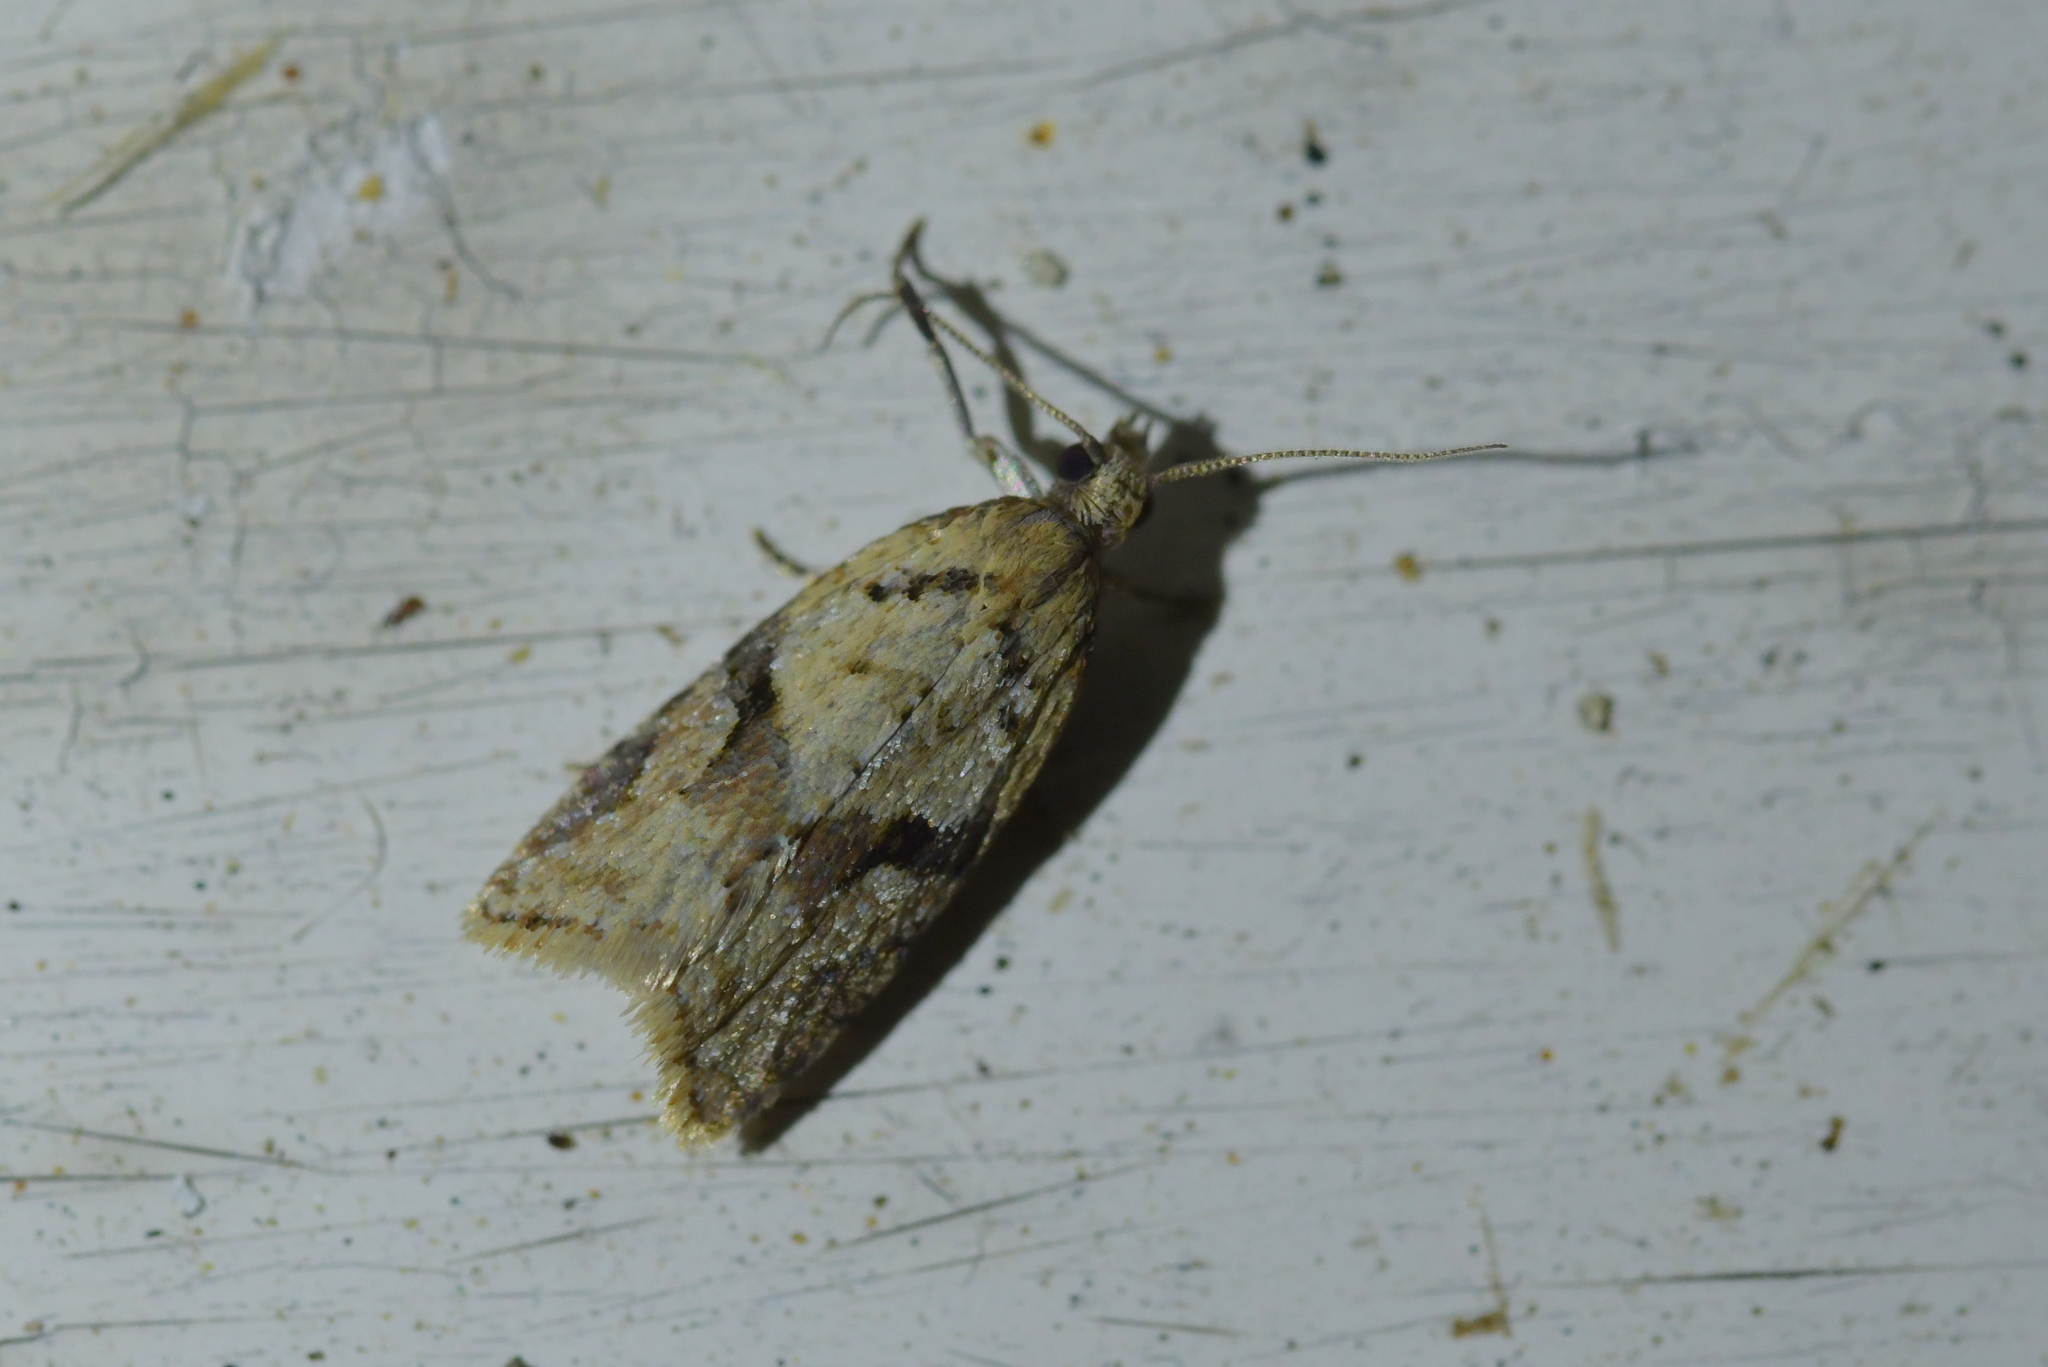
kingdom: Animalia
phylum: Arthropoda
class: Insecta
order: Lepidoptera
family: Tortricidae
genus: Capua
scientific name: Capua semiferana
